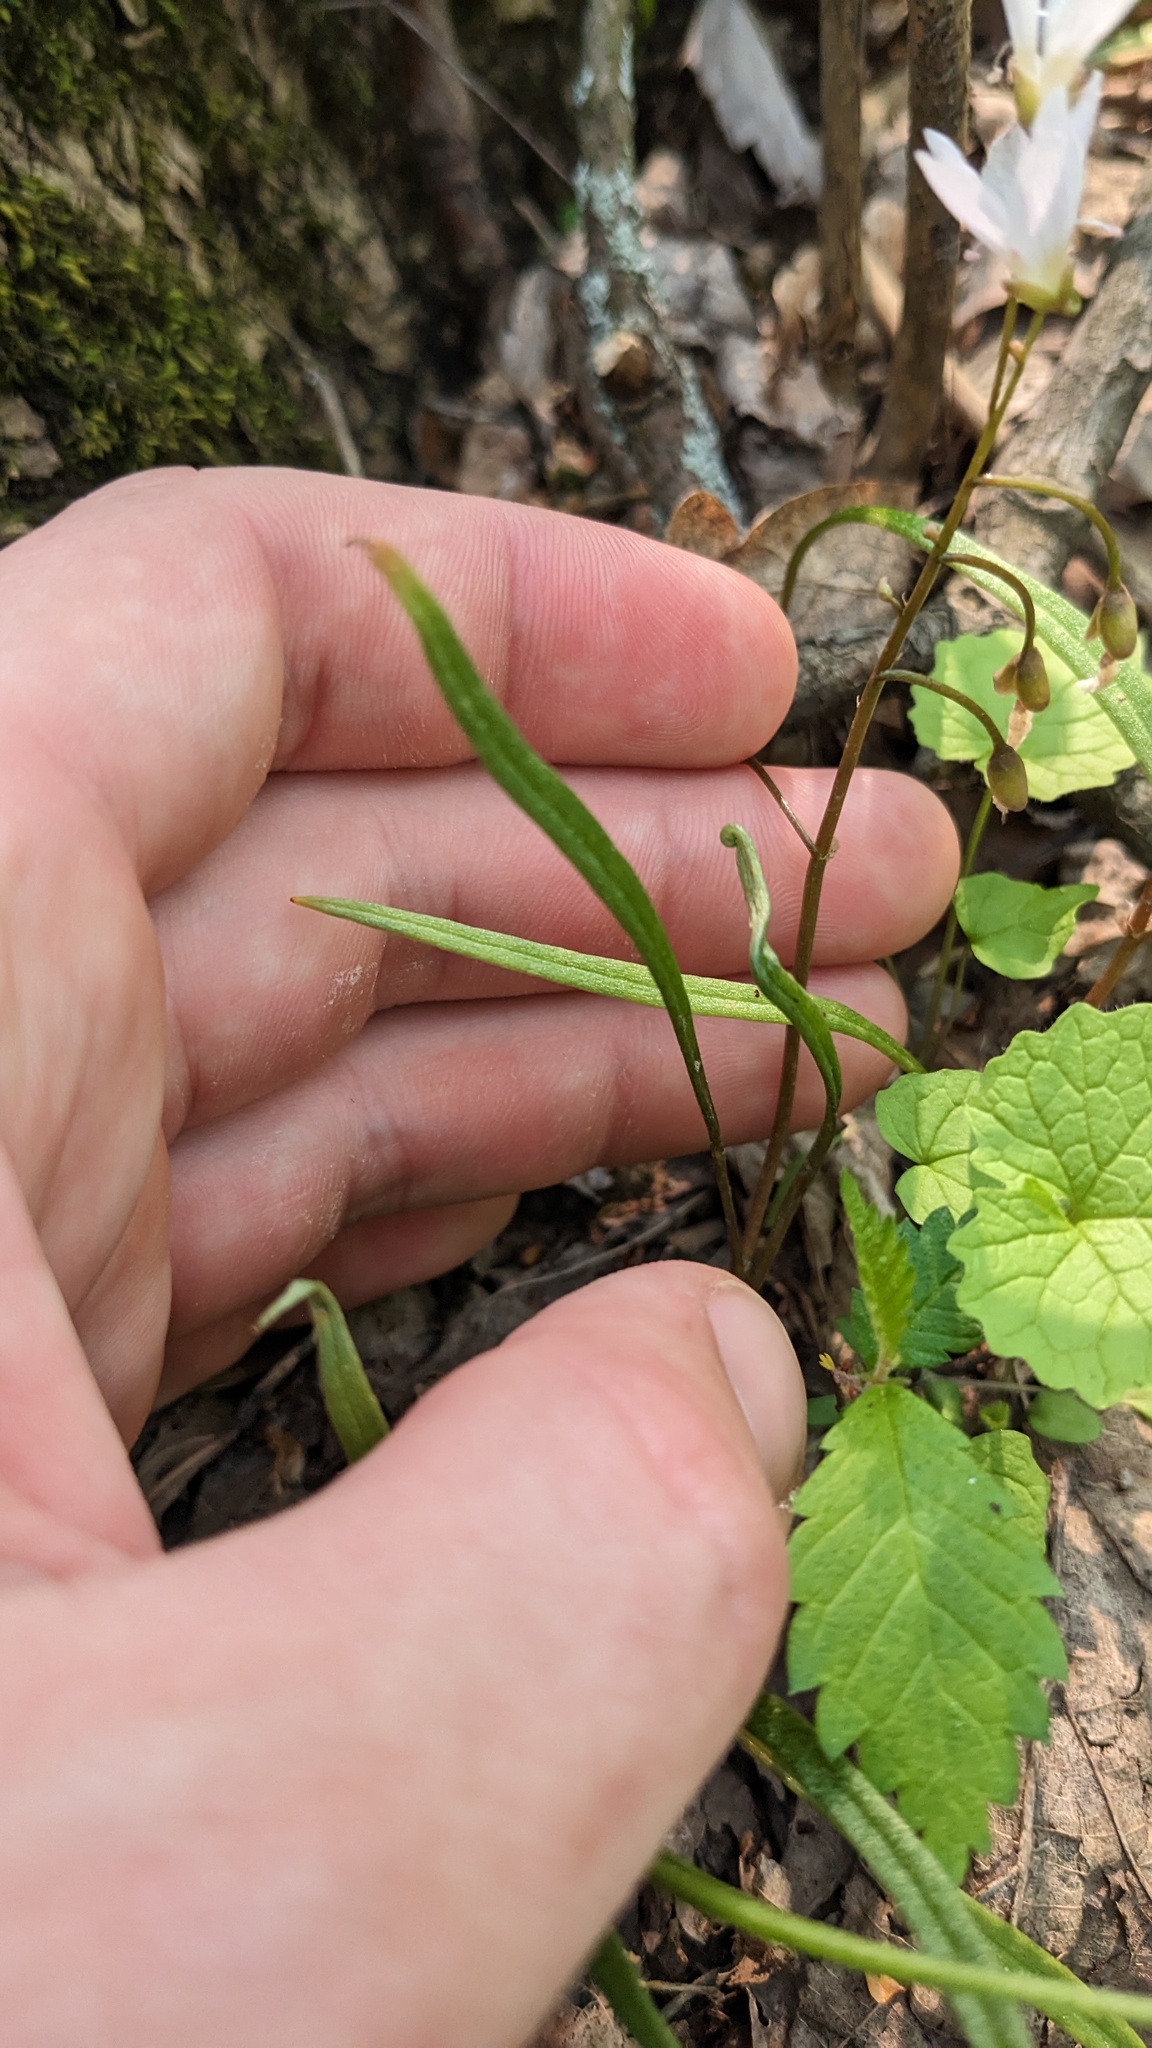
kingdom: Plantae
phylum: Tracheophyta
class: Magnoliopsida
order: Caryophyllales
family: Montiaceae
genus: Claytonia
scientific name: Claytonia virginica
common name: Virginia springbeauty
